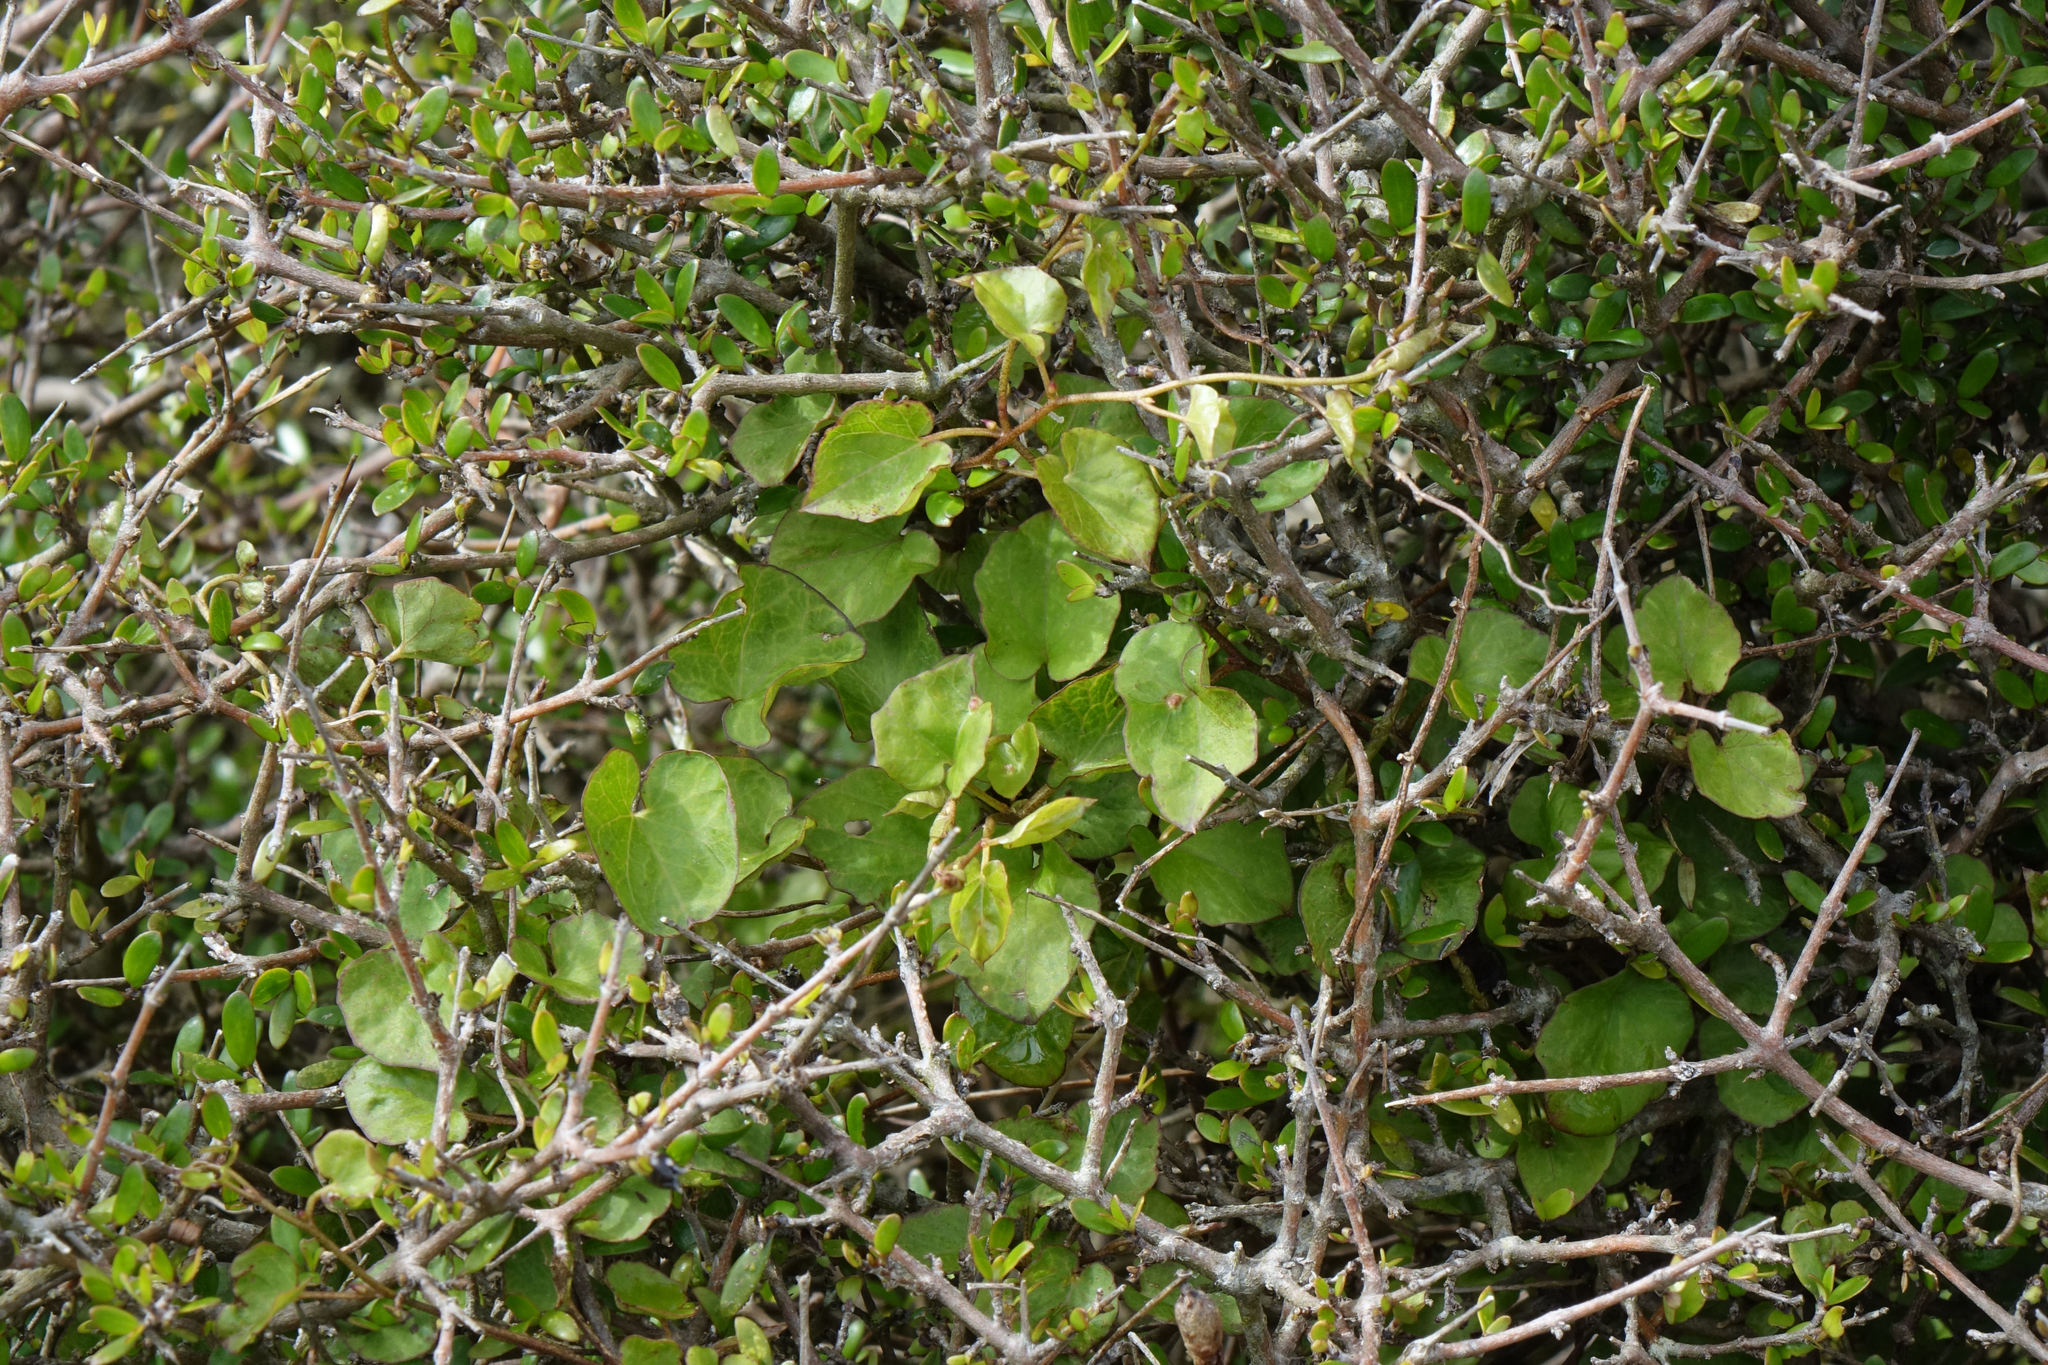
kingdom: Plantae
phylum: Tracheophyta
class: Magnoliopsida
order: Solanales
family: Convolvulaceae
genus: Calystegia
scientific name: Calystegia tuguriorum
